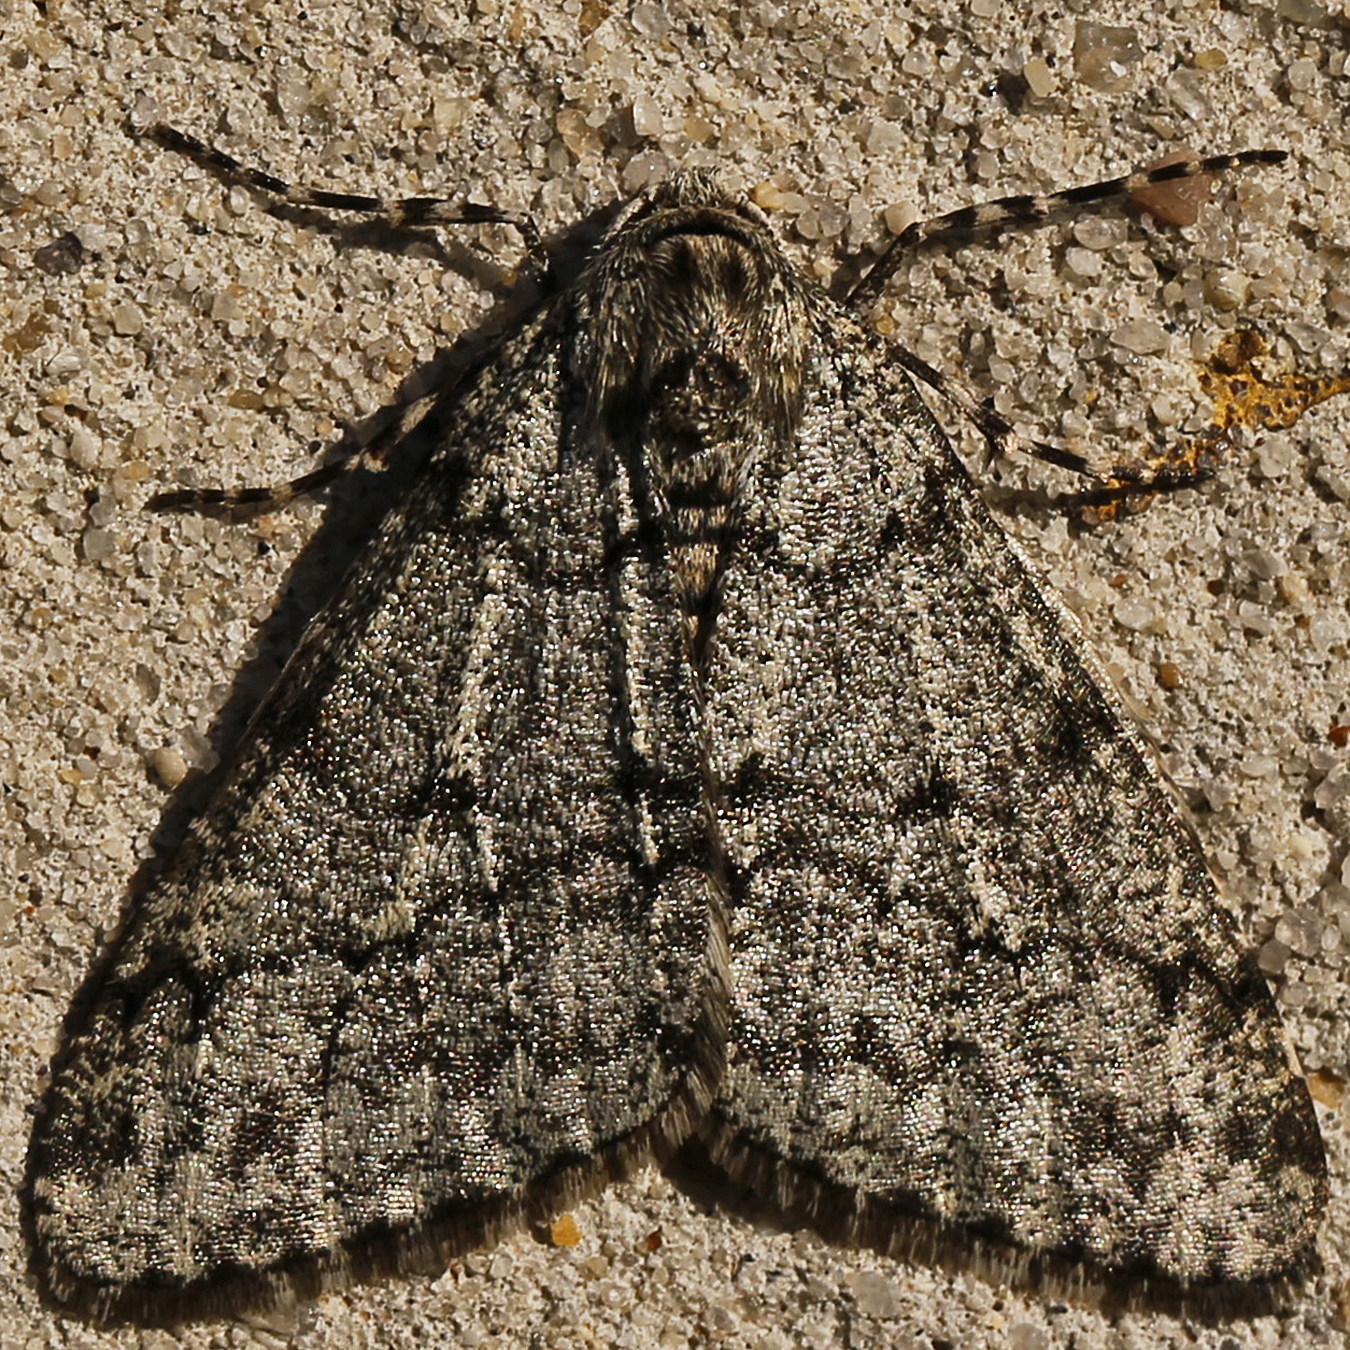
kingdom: Animalia
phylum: Arthropoda
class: Insecta
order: Lepidoptera
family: Geometridae
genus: Phigalia
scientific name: Phigalia strigataria
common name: Small phigalia
